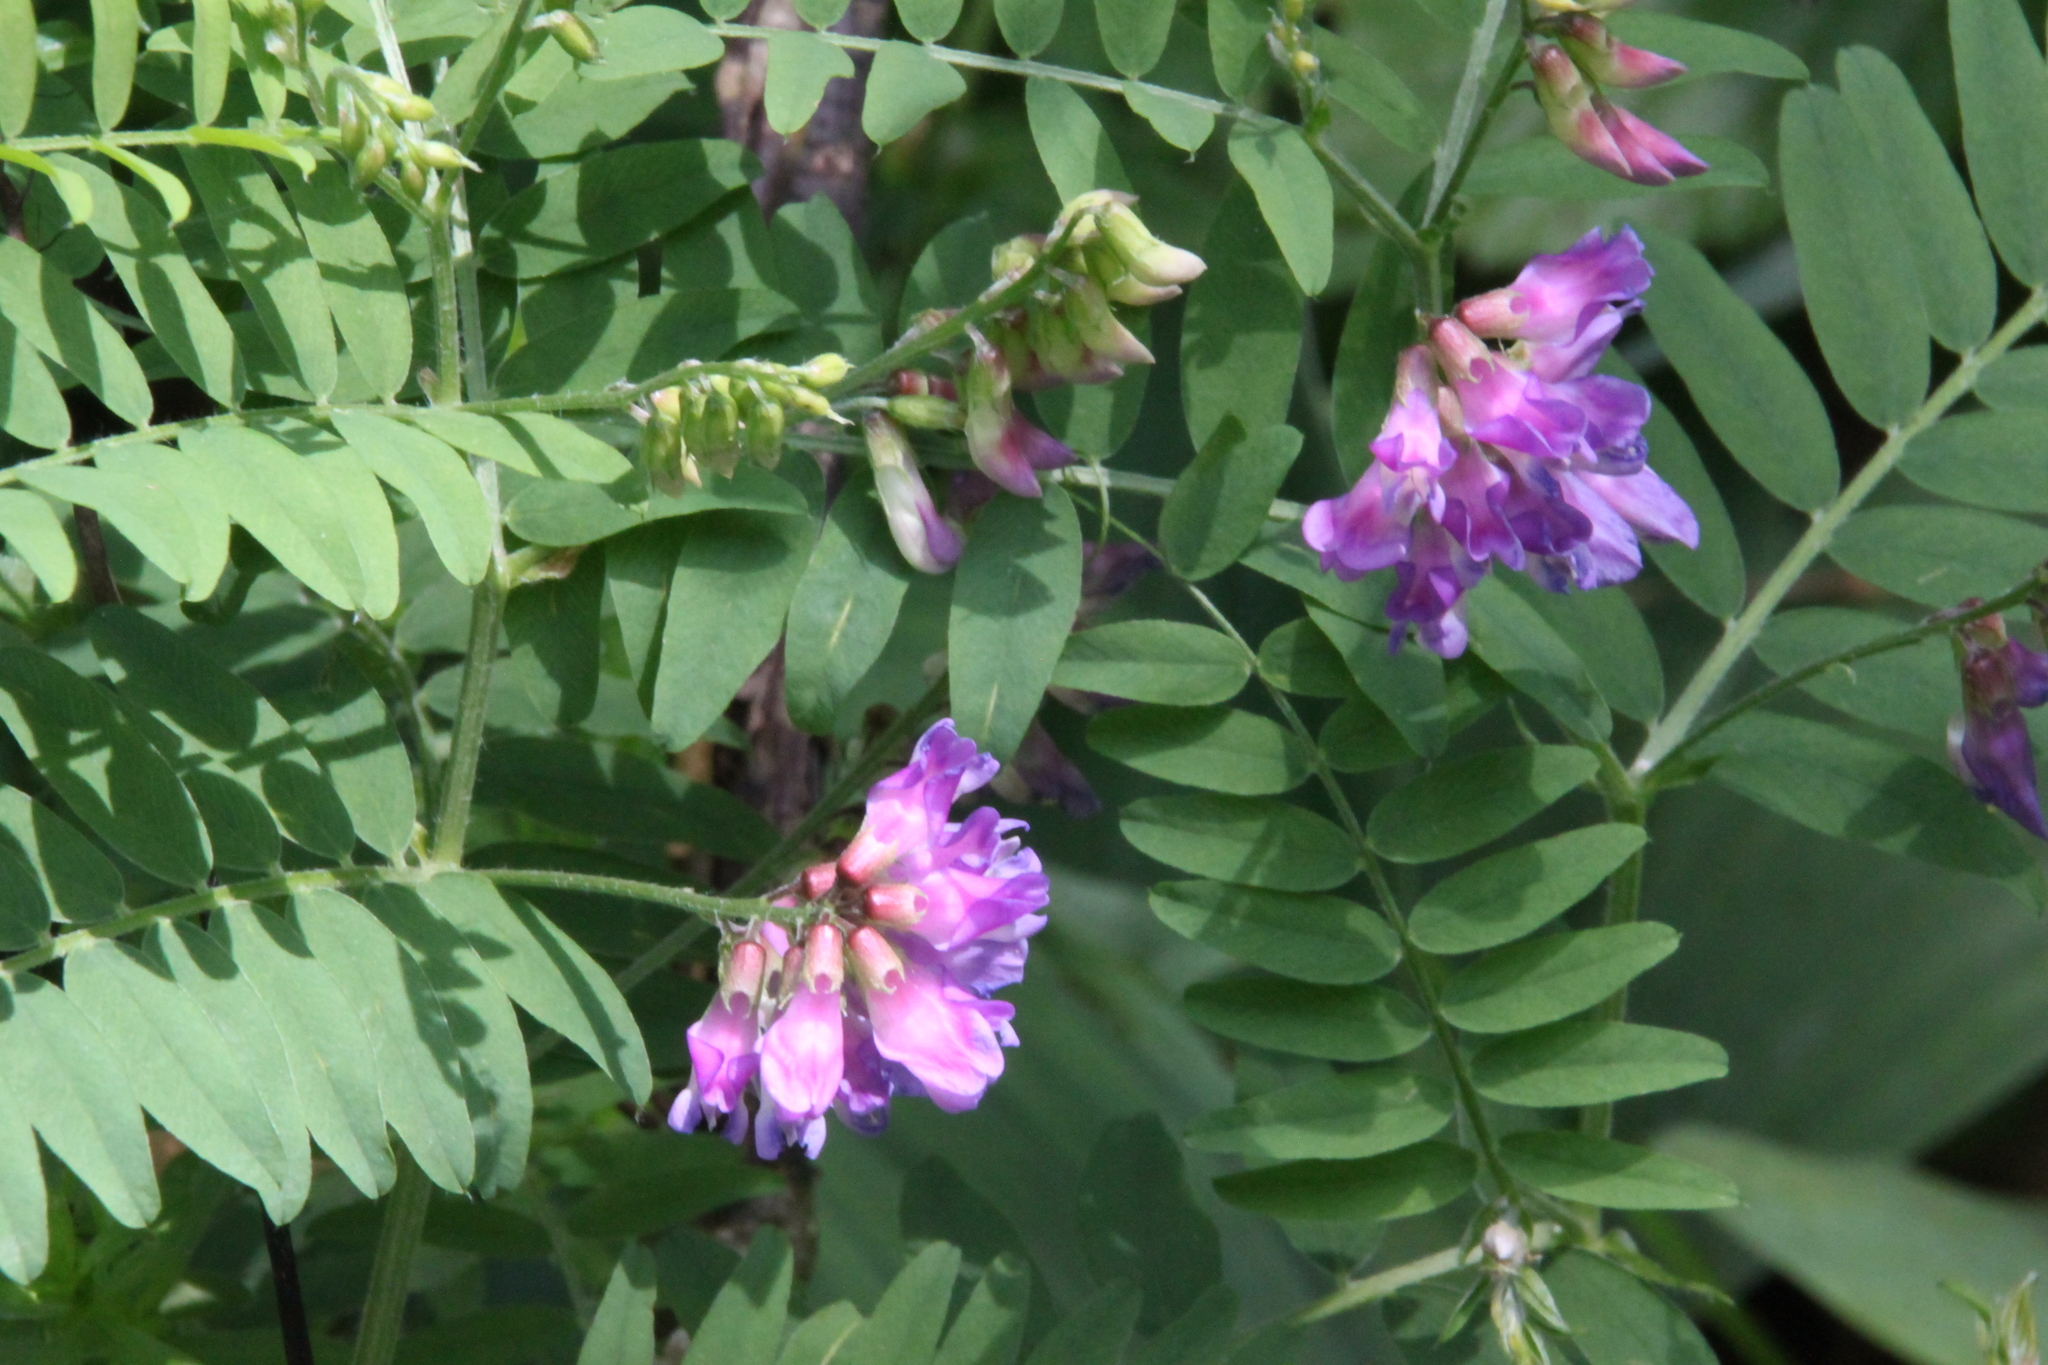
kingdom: Plantae
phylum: Tracheophyta
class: Magnoliopsida
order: Fabales
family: Fabaceae
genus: Vicia
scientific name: Vicia cassubica
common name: Danzig vetch
